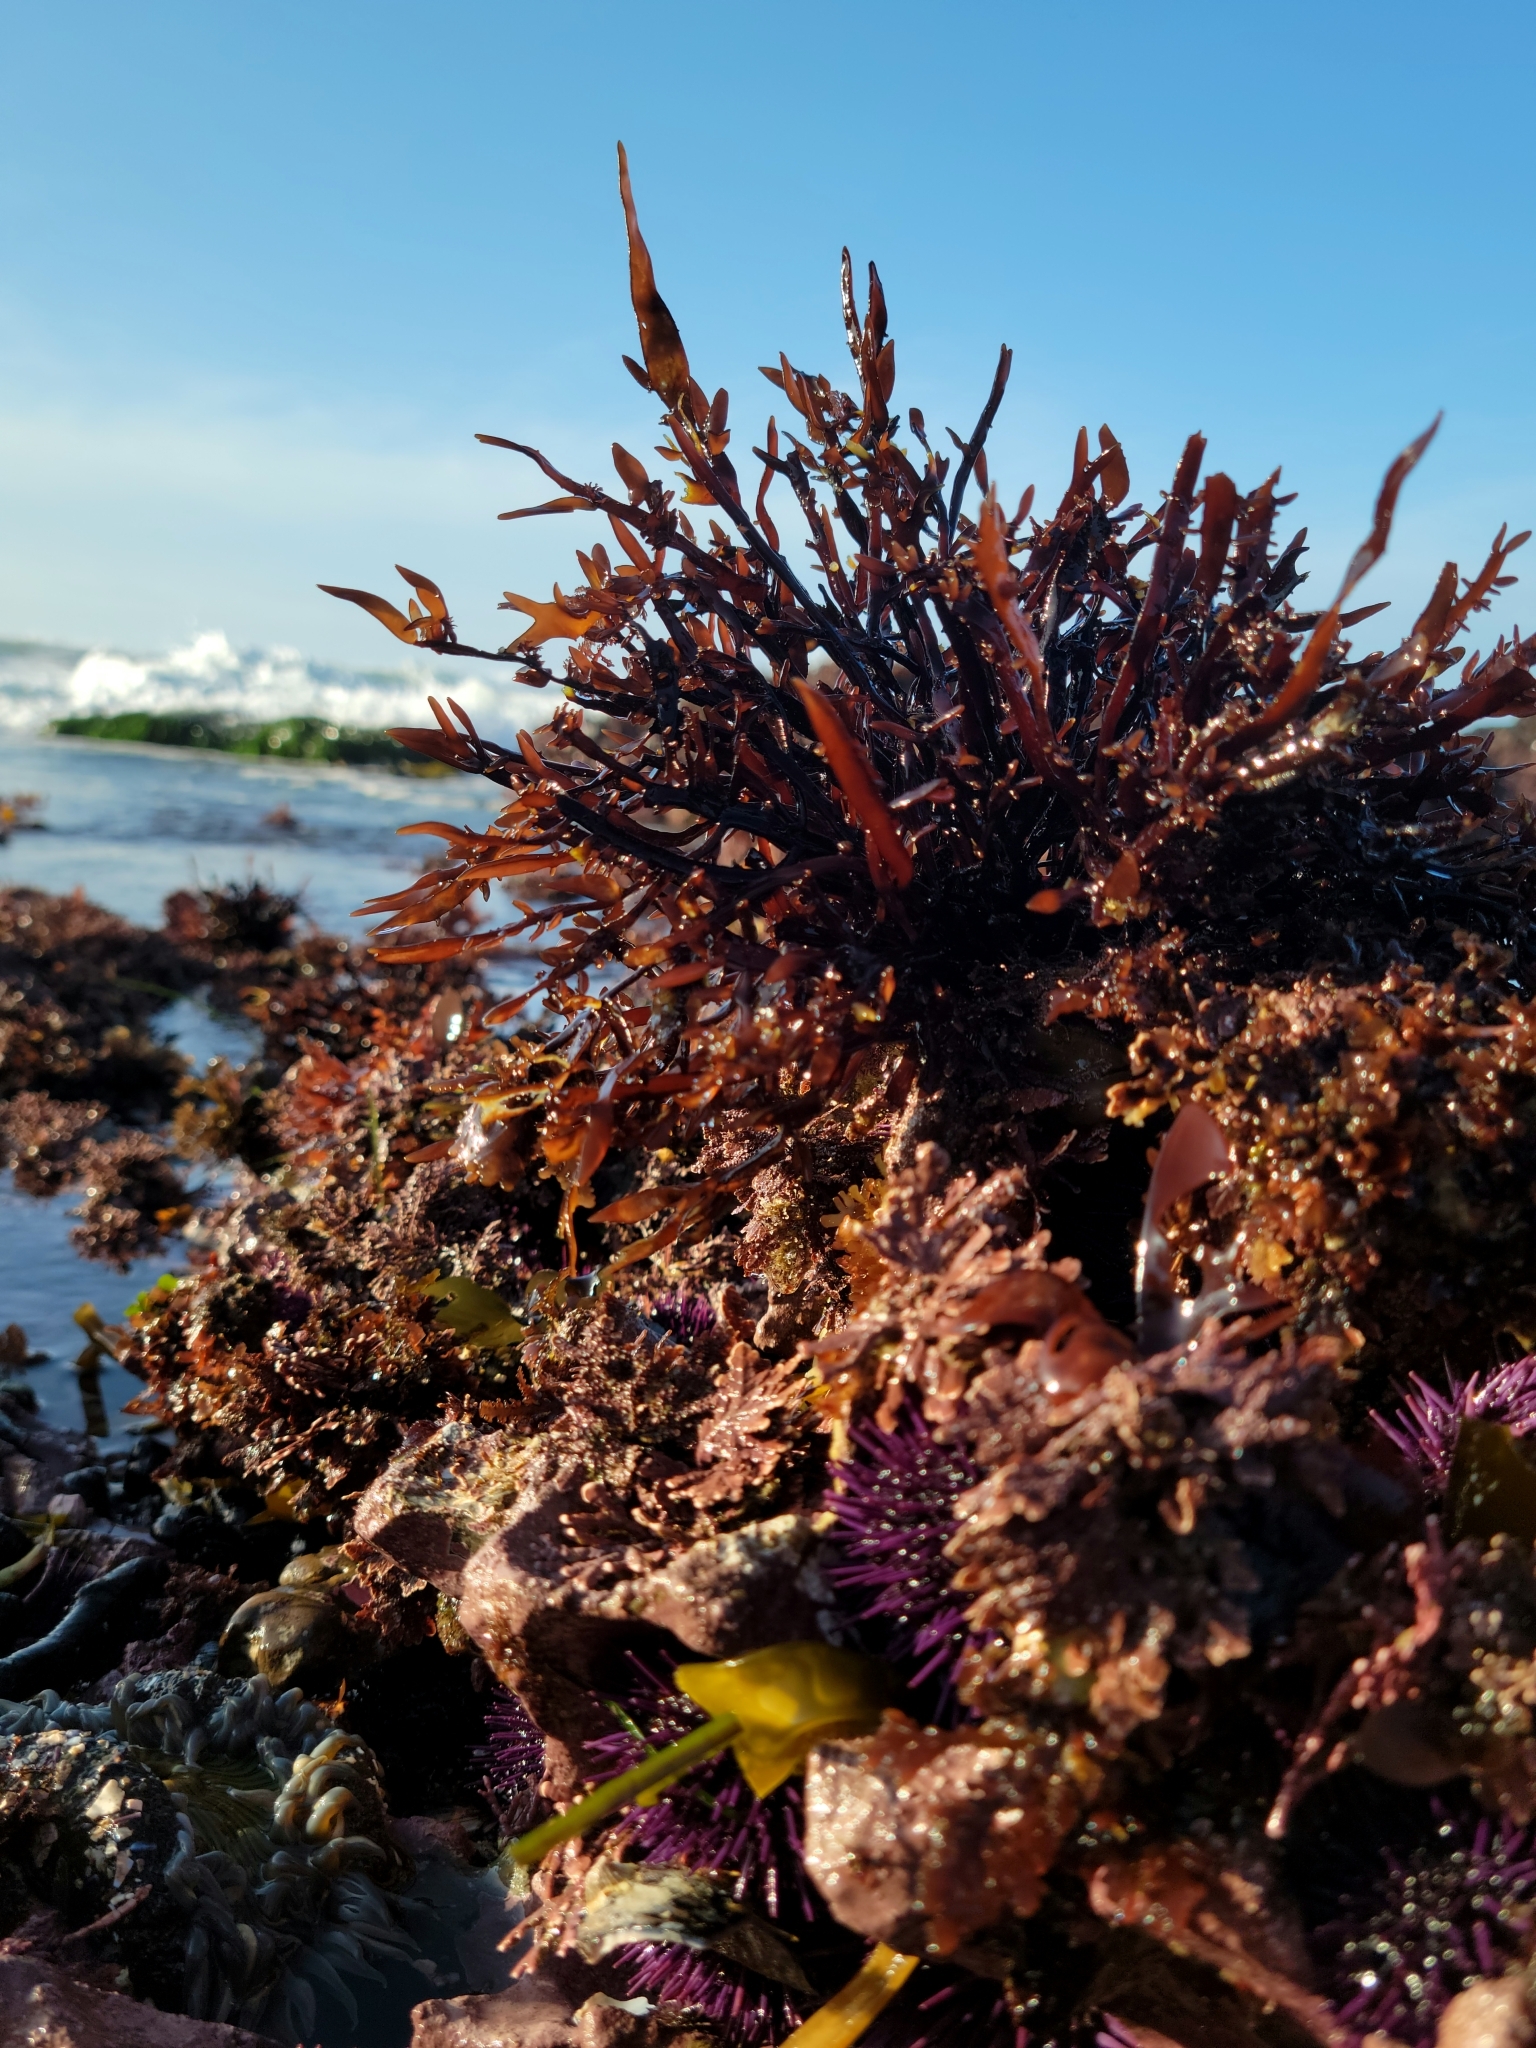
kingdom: Plantae
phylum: Rhodophyta
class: Florideophyceae
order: Halymeniales
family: Halymeniaceae
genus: Grateloupia
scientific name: Grateloupia Prionitis lanceolata
